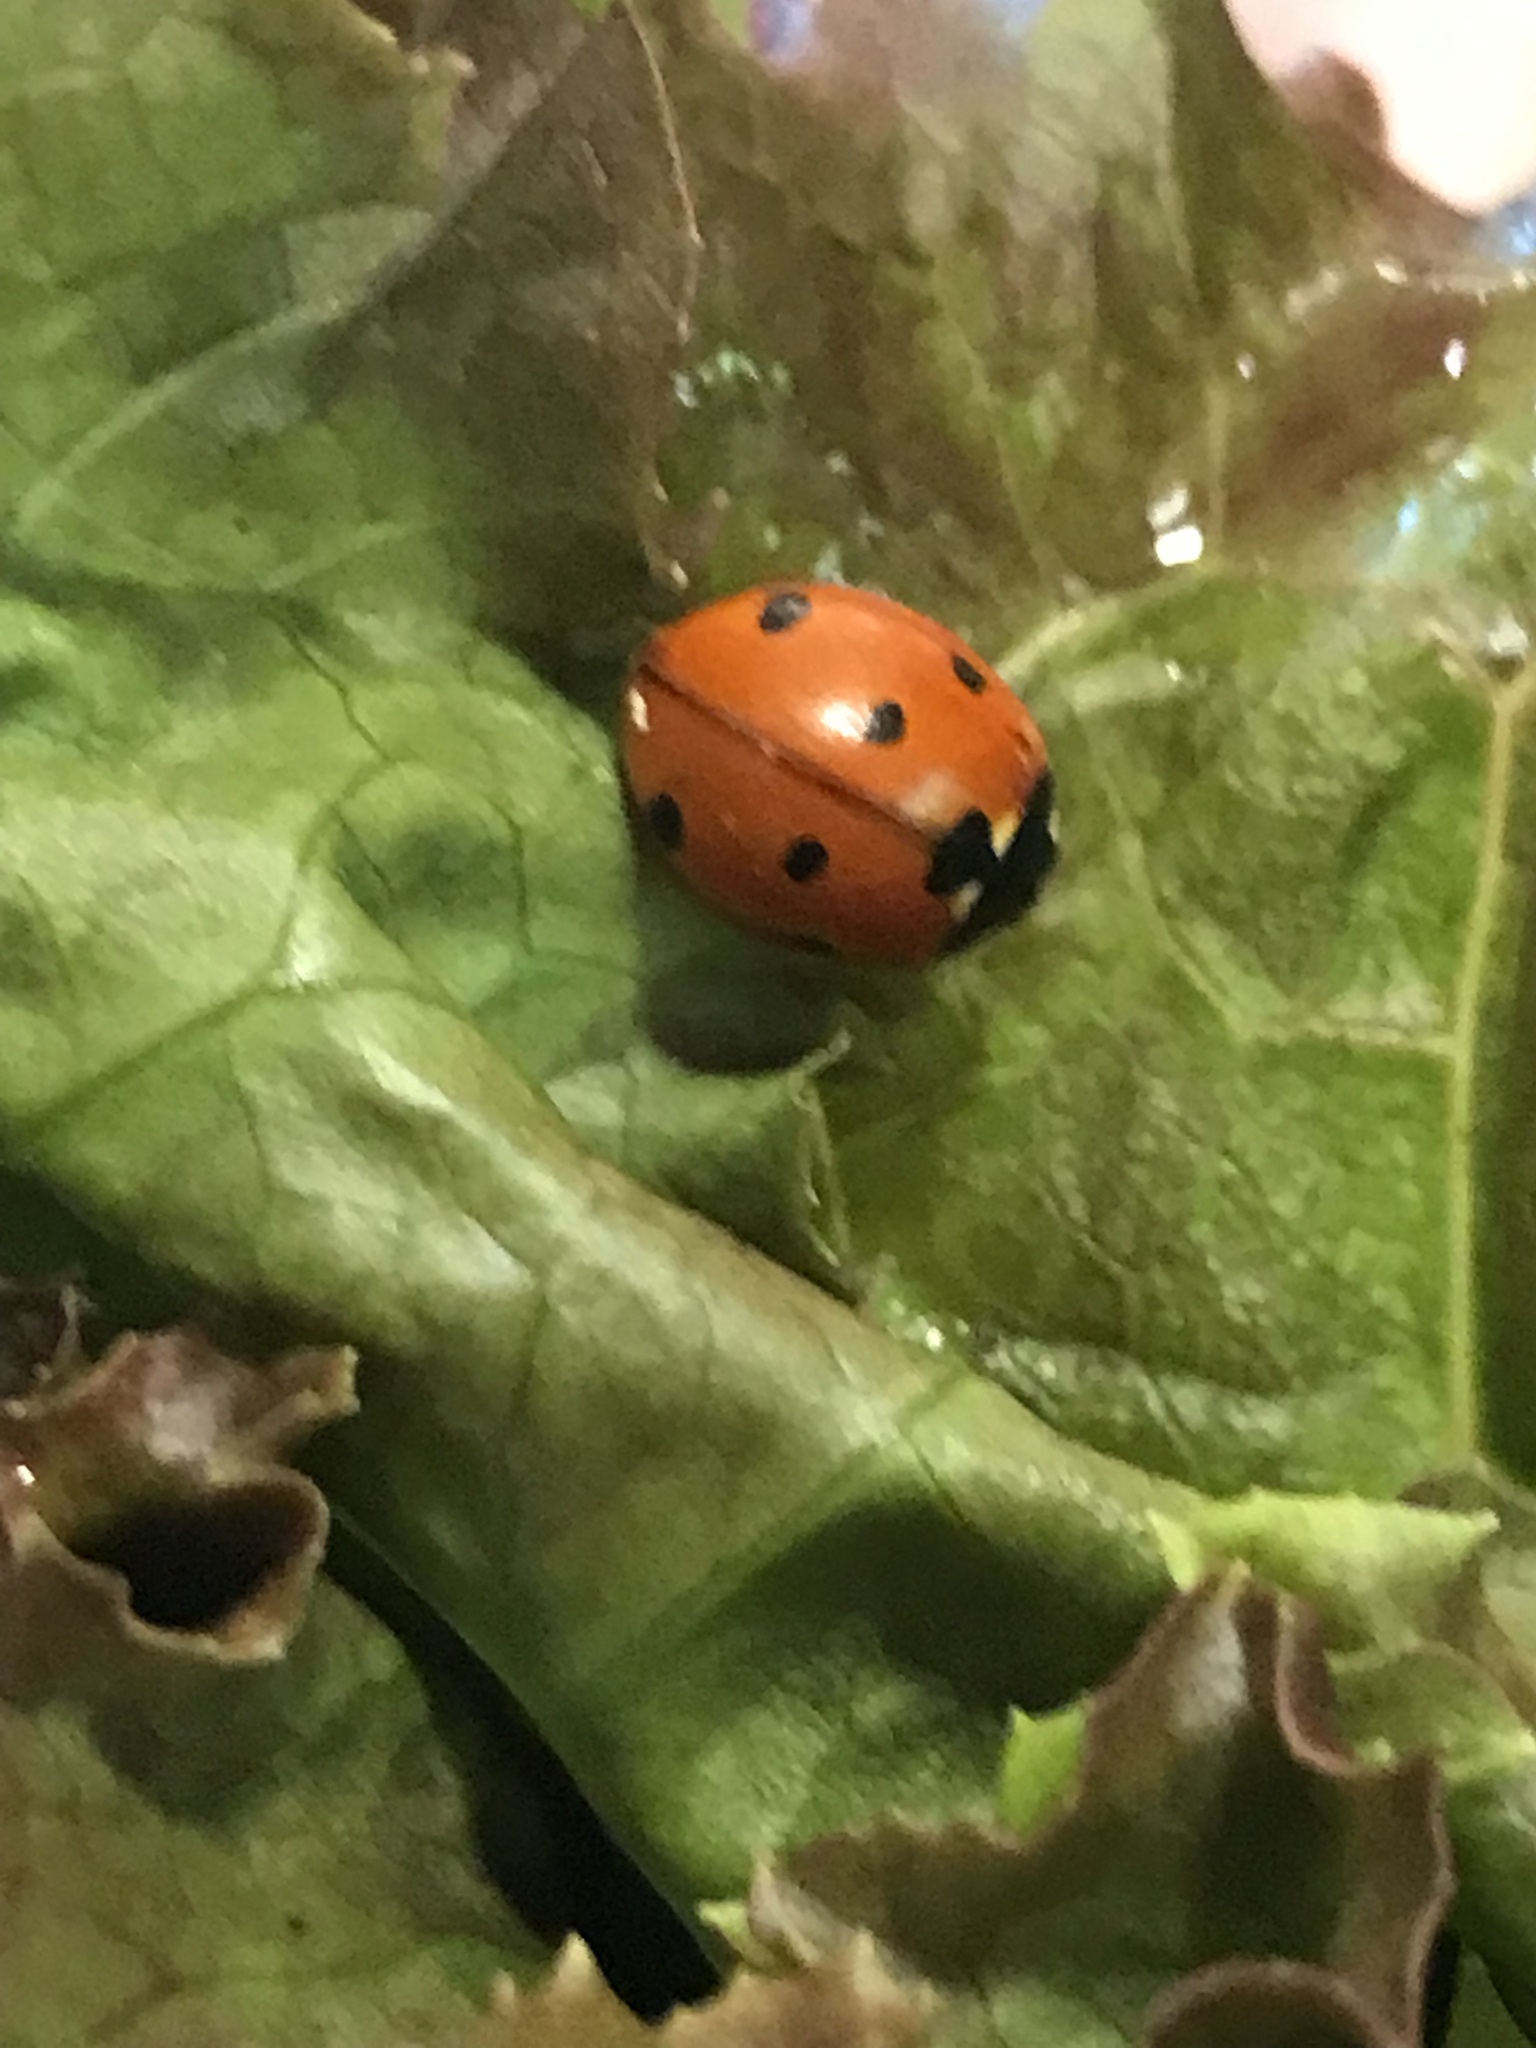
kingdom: Animalia
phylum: Arthropoda
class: Insecta
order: Coleoptera
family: Coccinellidae
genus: Coccinella
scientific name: Coccinella septempunctata
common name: Sevenspotted lady beetle
